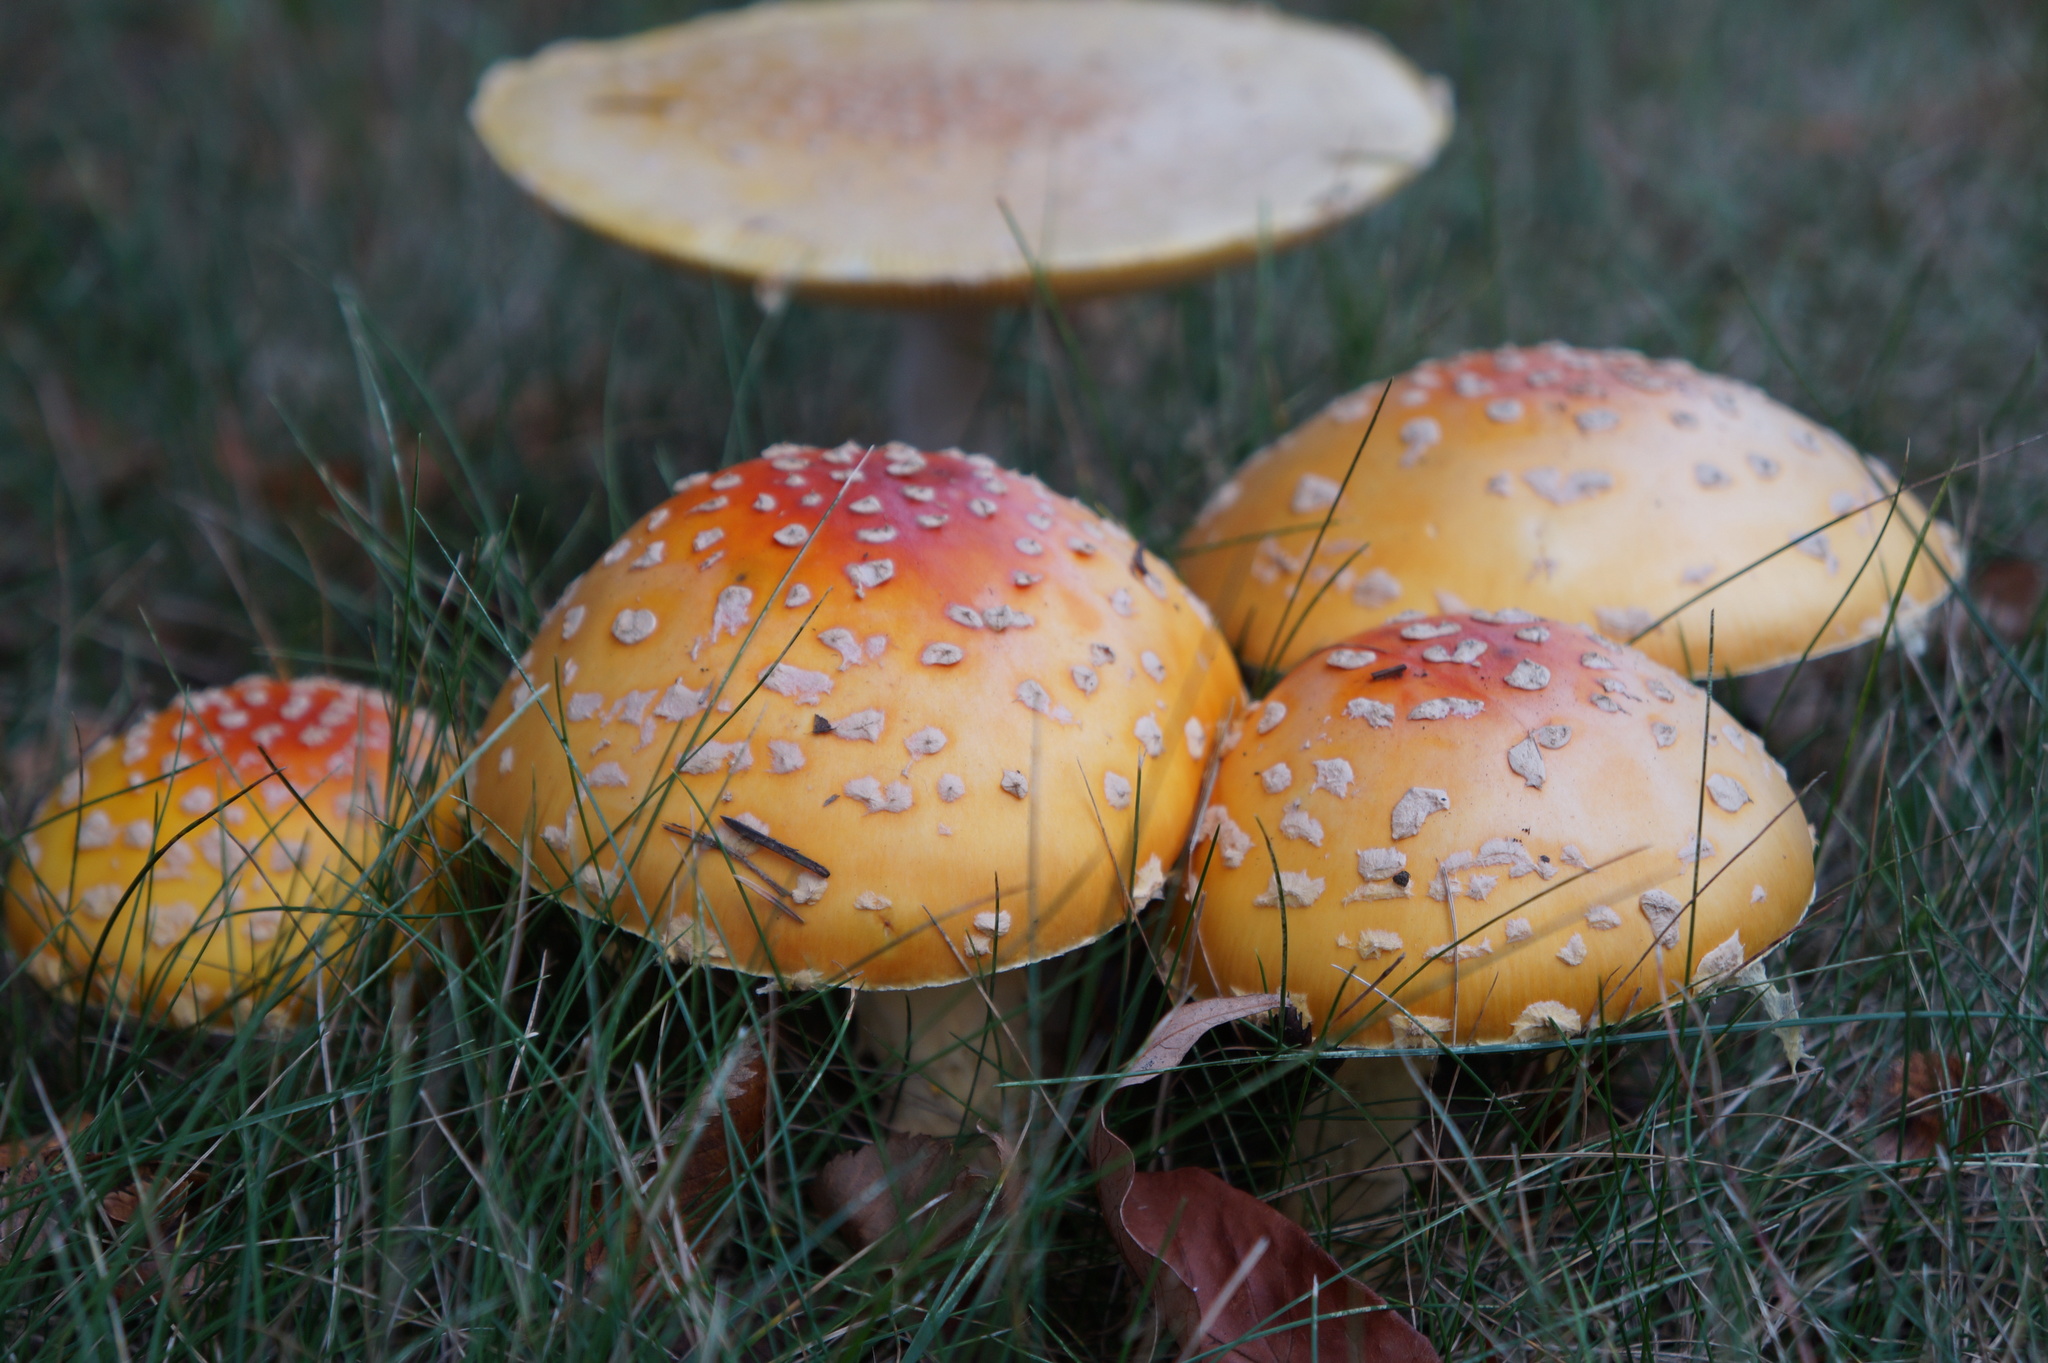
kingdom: Fungi
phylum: Basidiomycota
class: Agaricomycetes
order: Agaricales
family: Amanitaceae
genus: Amanita
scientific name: Amanita muscaria
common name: Fly agaric
